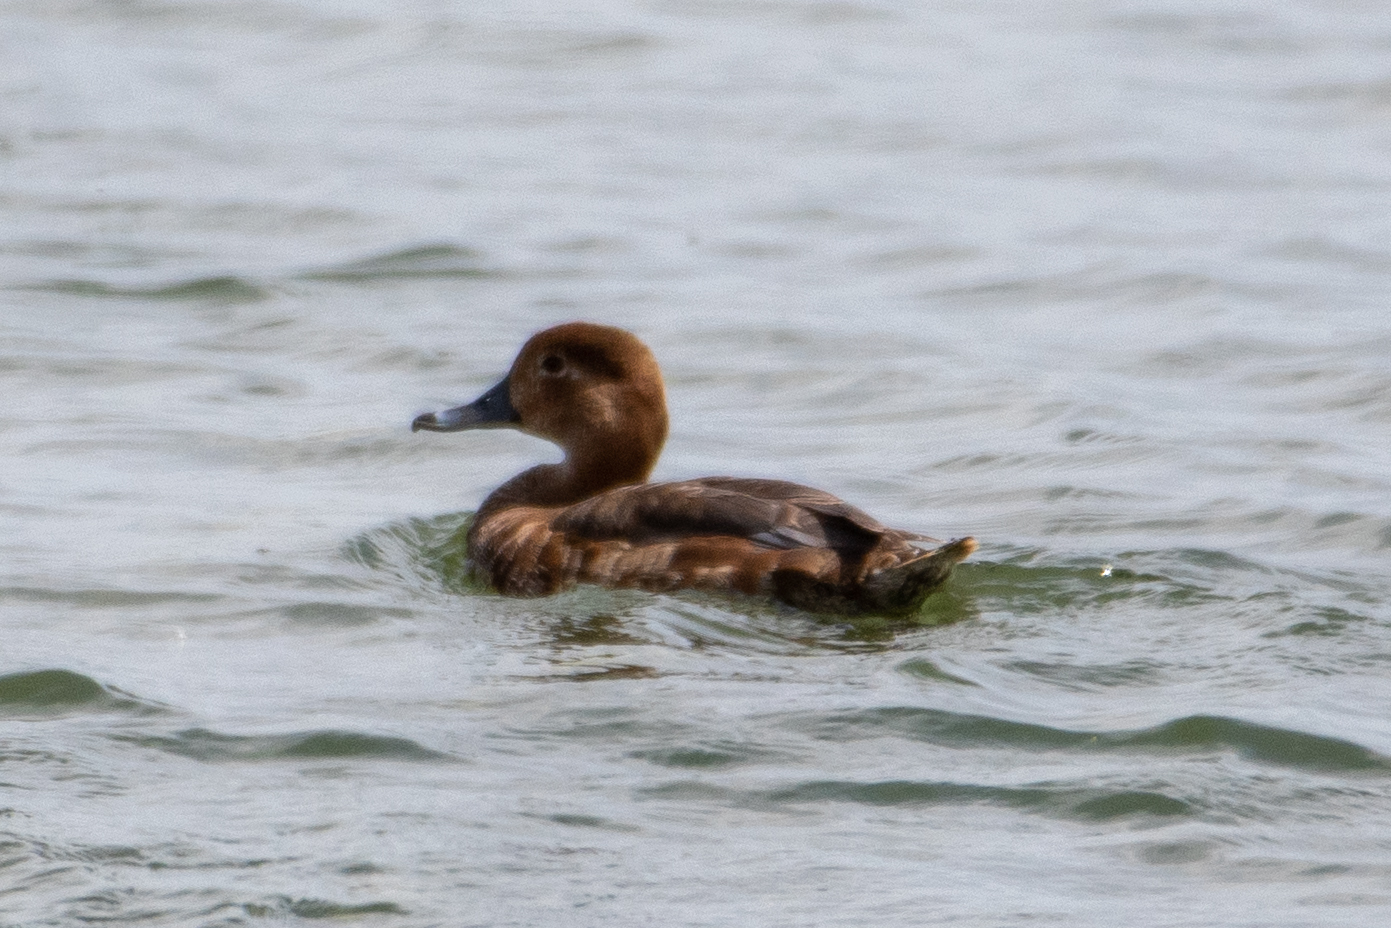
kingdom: Animalia
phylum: Chordata
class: Aves
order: Anseriformes
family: Anatidae
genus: Aythya
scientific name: Aythya americana
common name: Redhead
